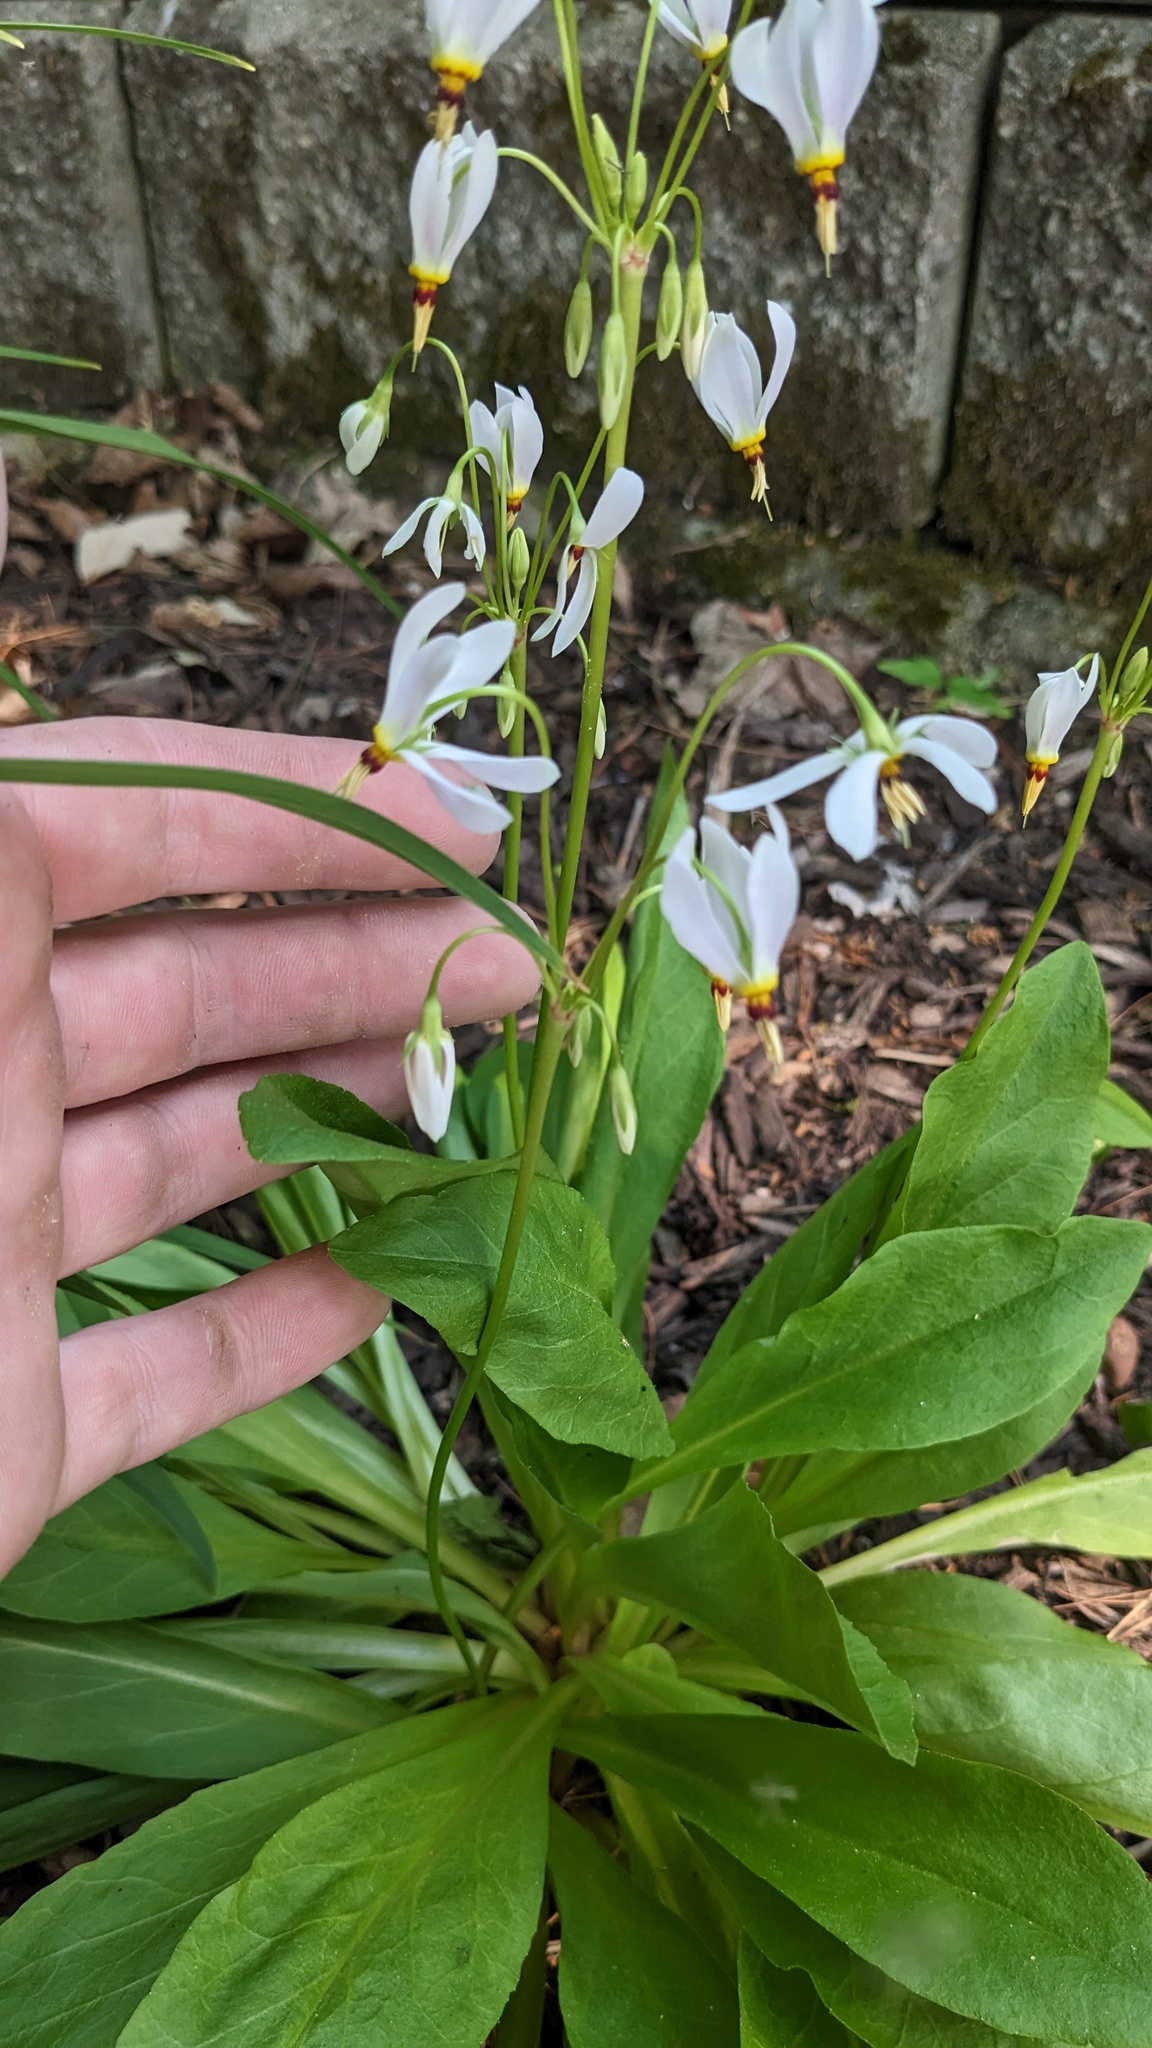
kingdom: Plantae
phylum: Tracheophyta
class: Magnoliopsida
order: Ericales
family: Primulaceae
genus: Dodecatheon
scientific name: Dodecatheon meadia
